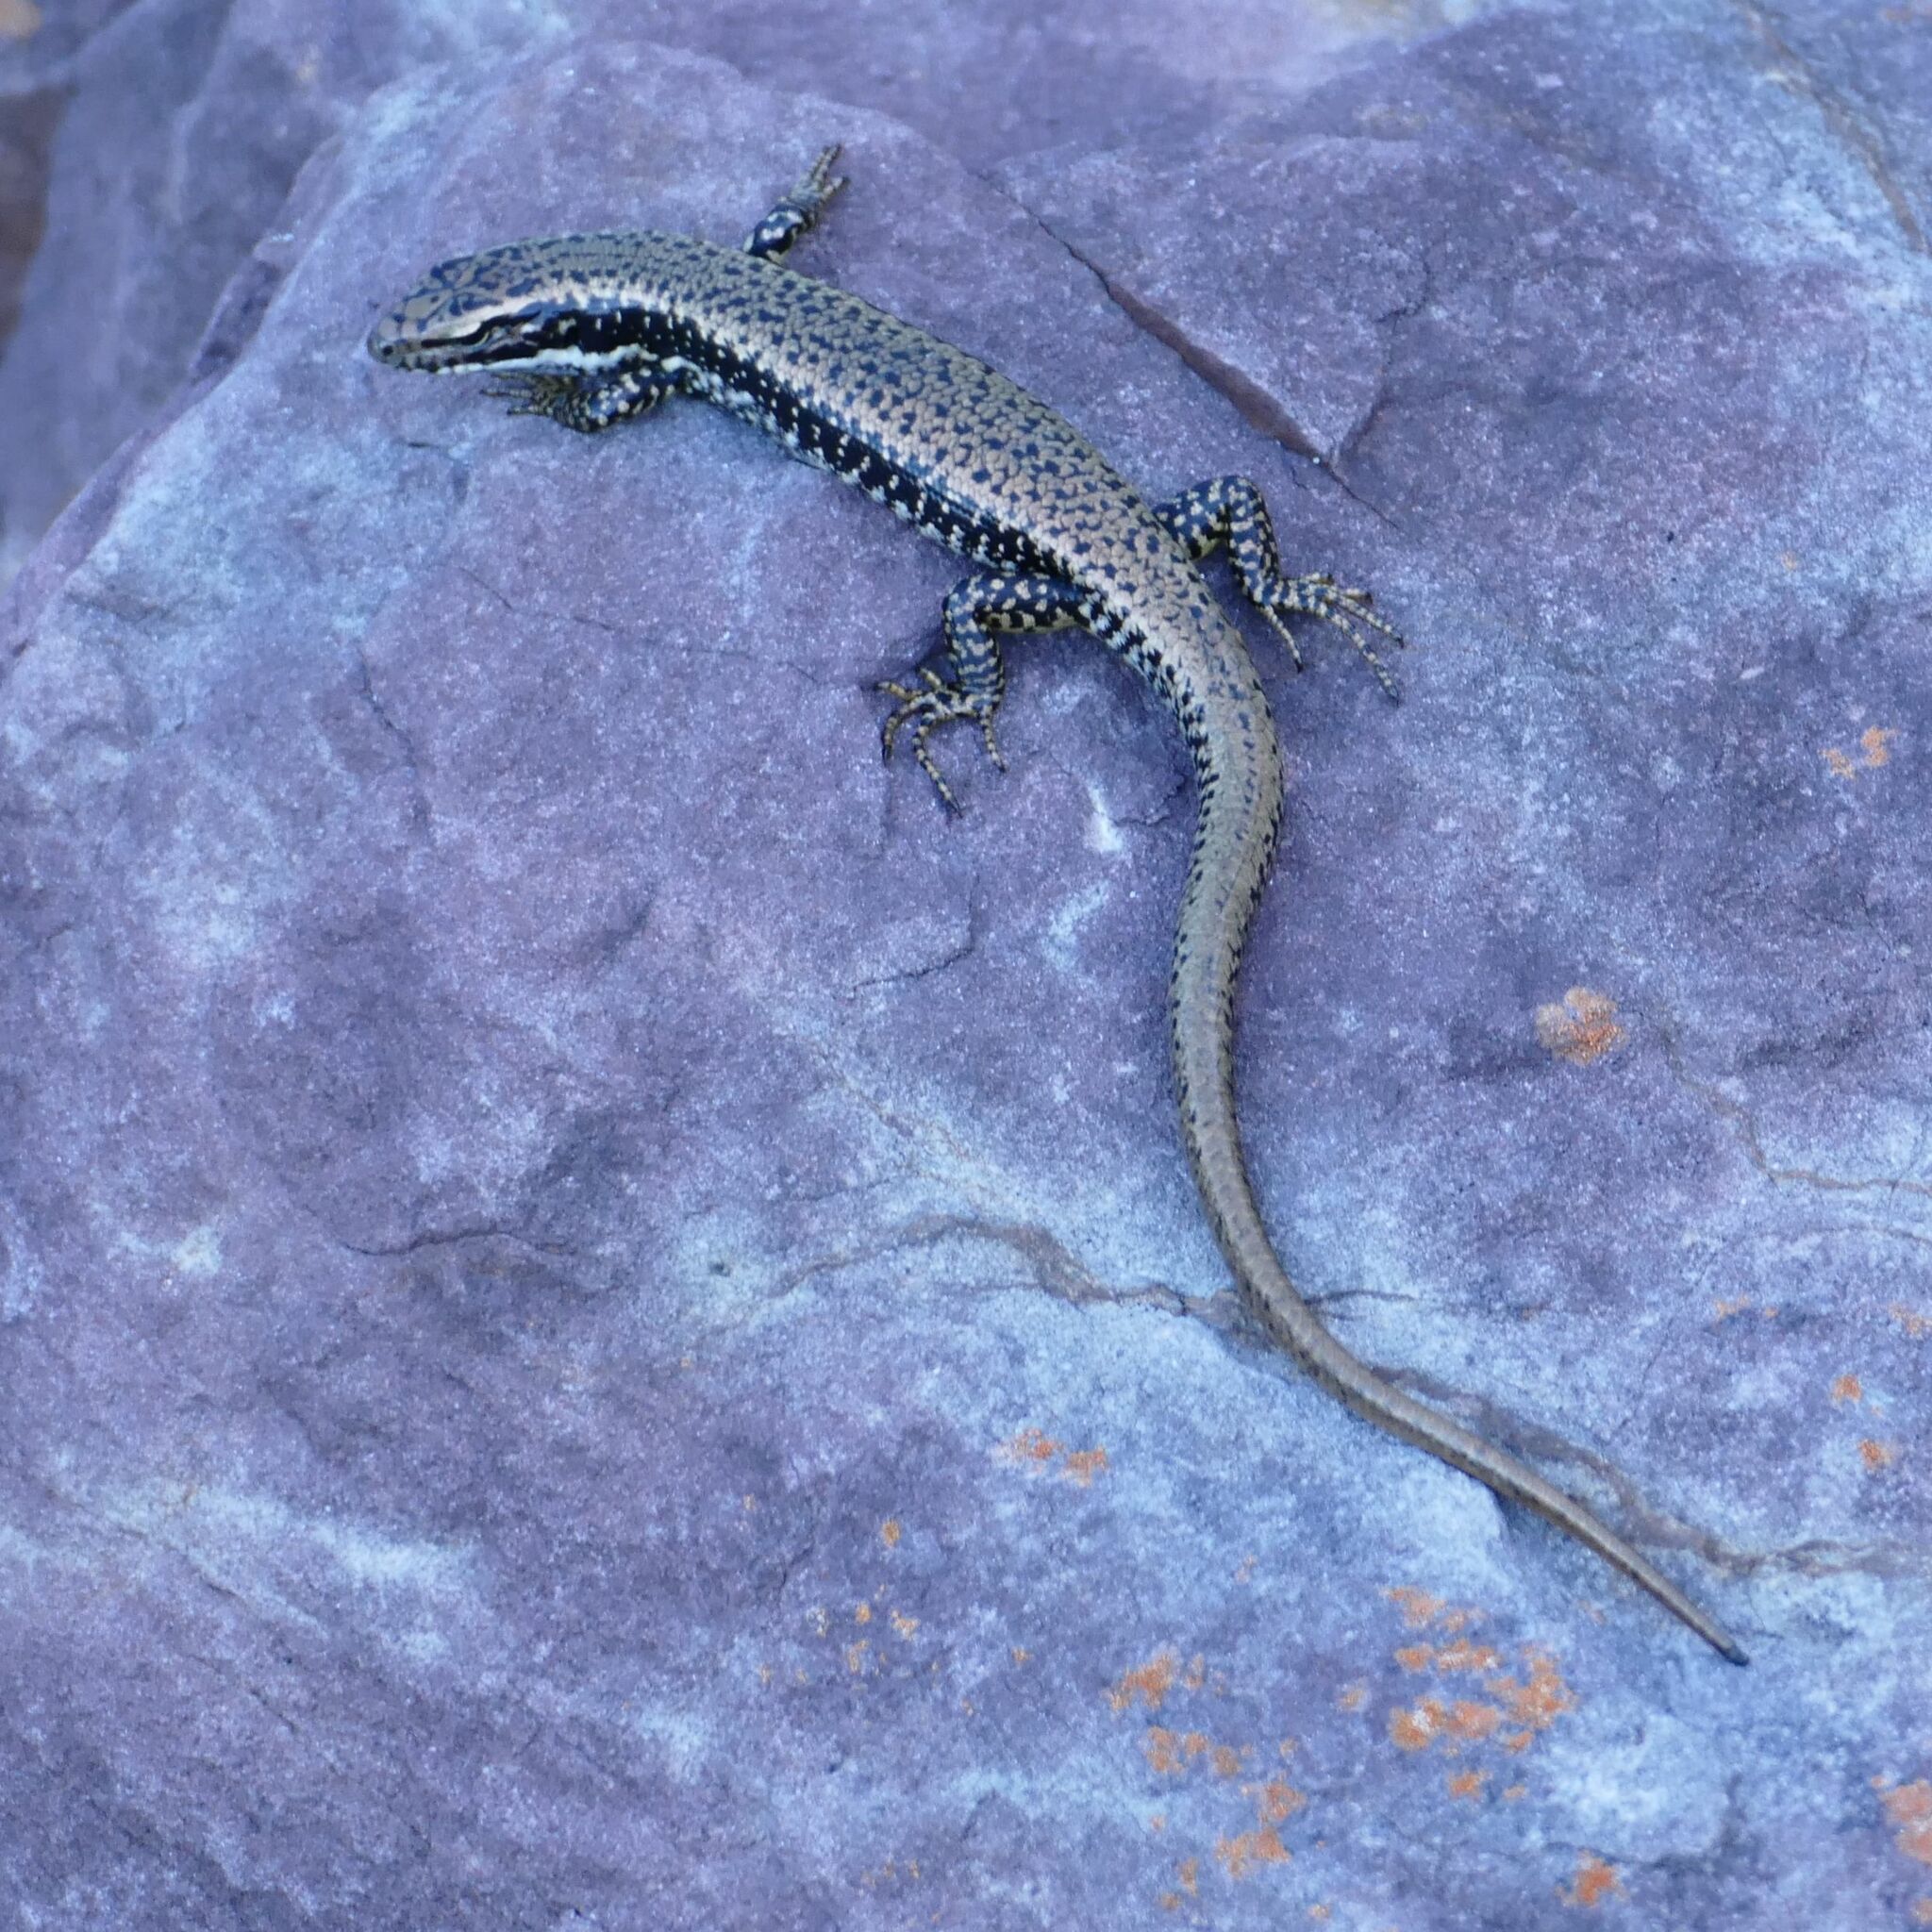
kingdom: Animalia
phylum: Chordata
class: Squamata
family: Scincidae
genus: Eulamprus
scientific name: Eulamprus heatwolei
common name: Warm-temperate water-skink
